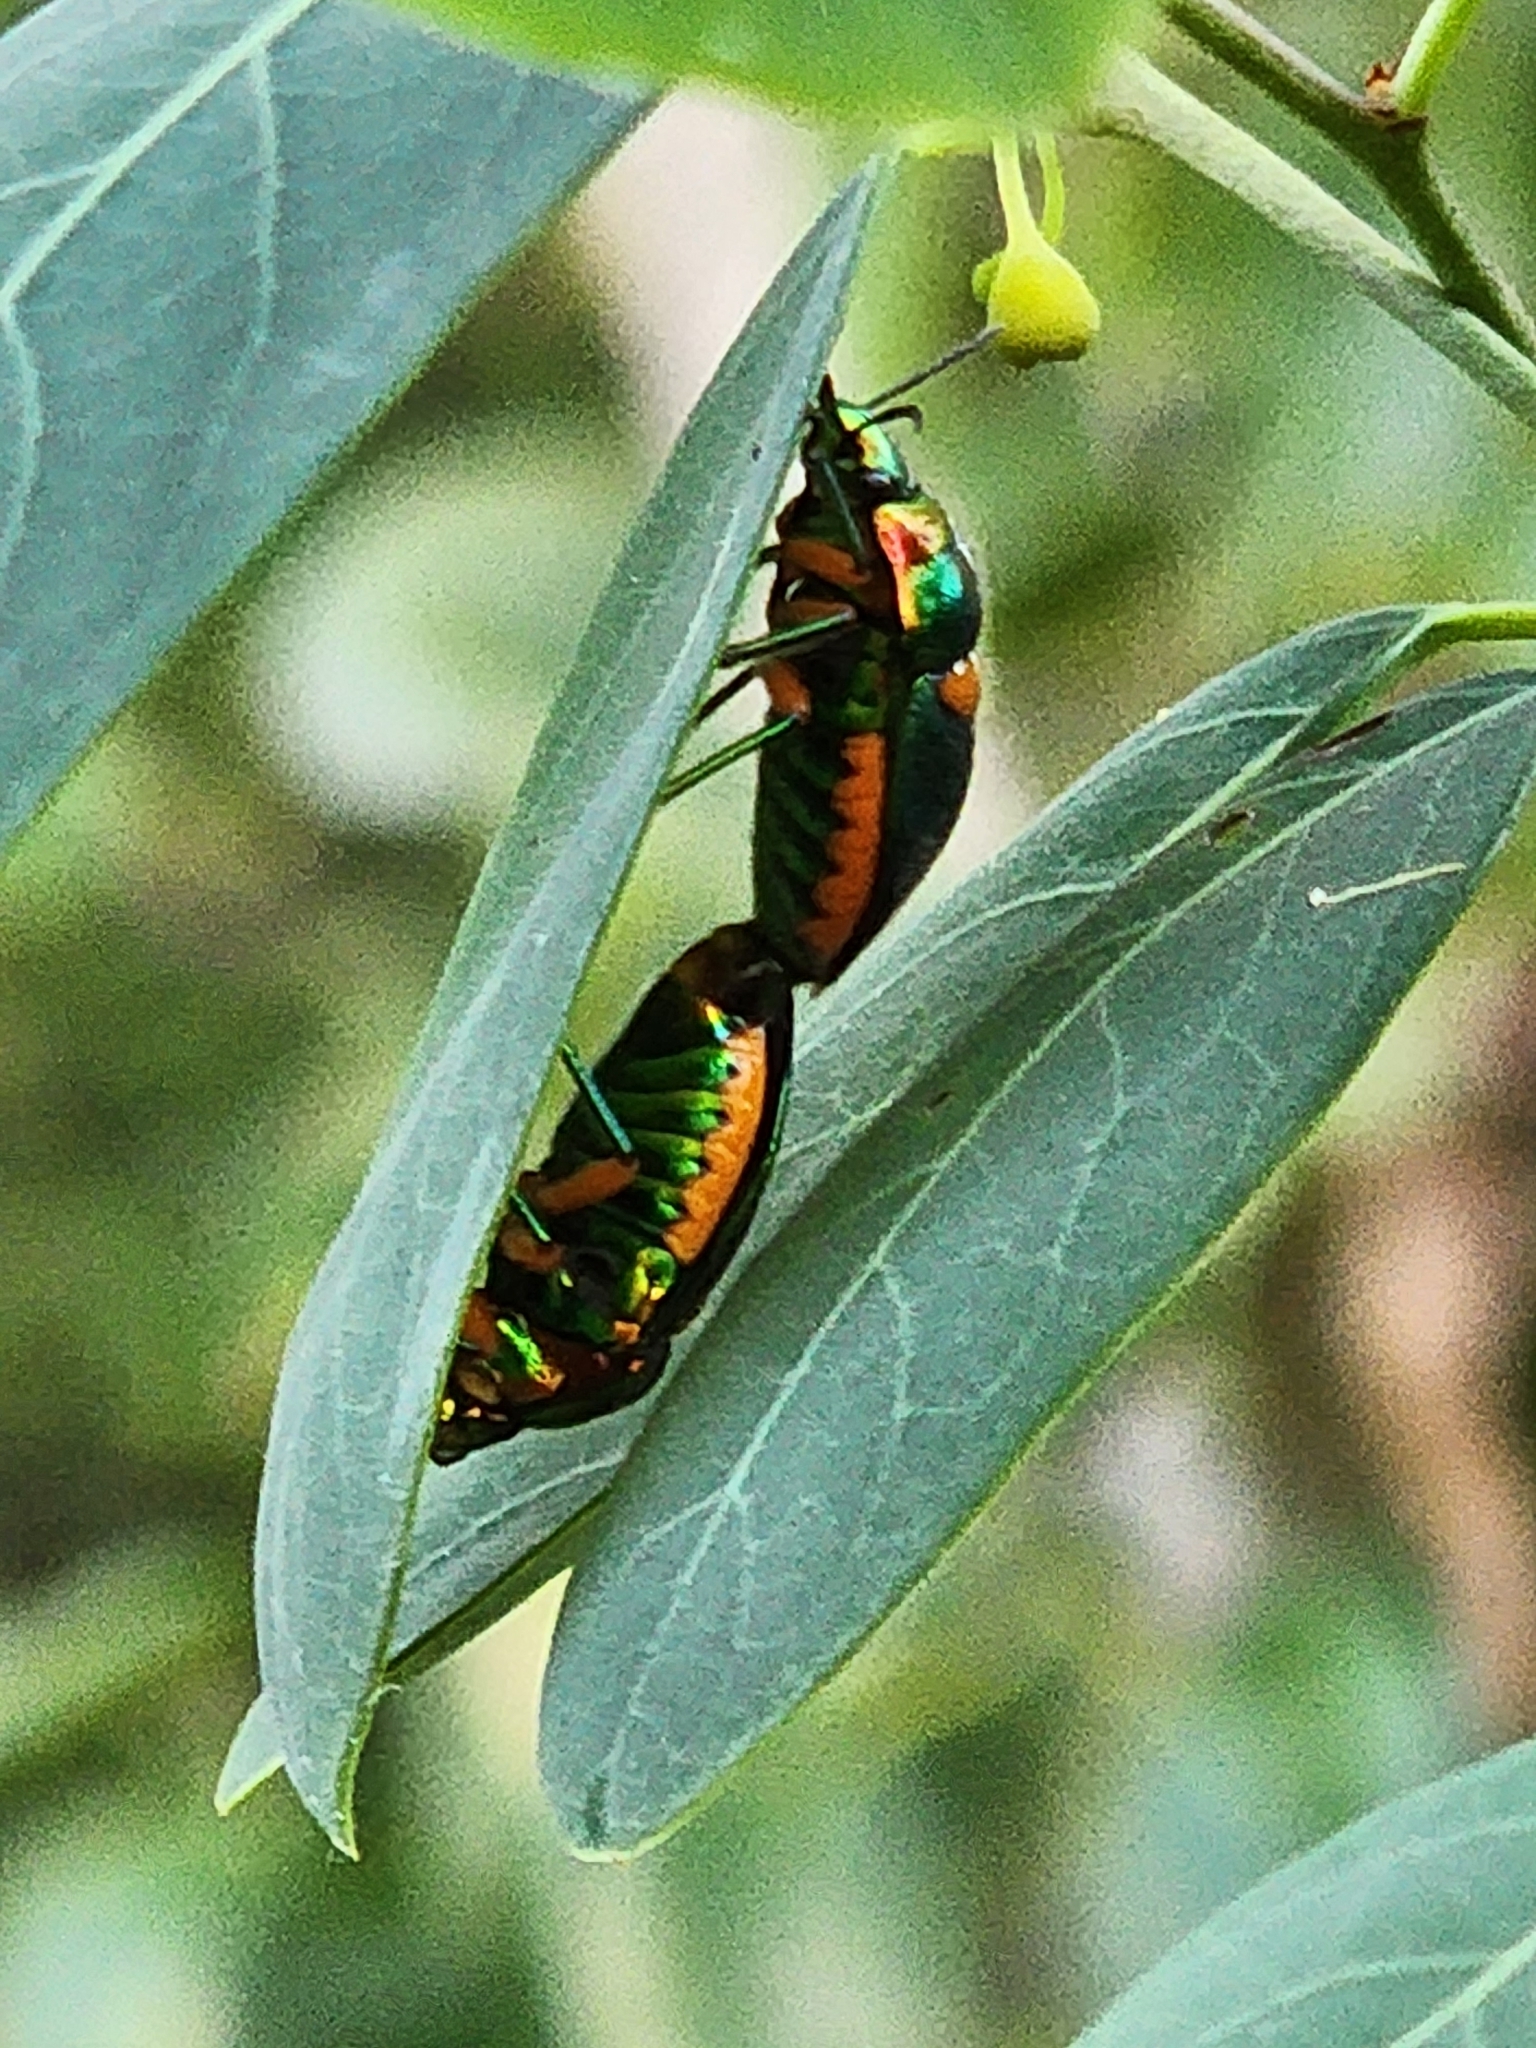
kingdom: Animalia
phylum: Arthropoda
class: Insecta
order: Hemiptera
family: Scutelleridae
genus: Lampromicra
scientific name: Lampromicra senator
